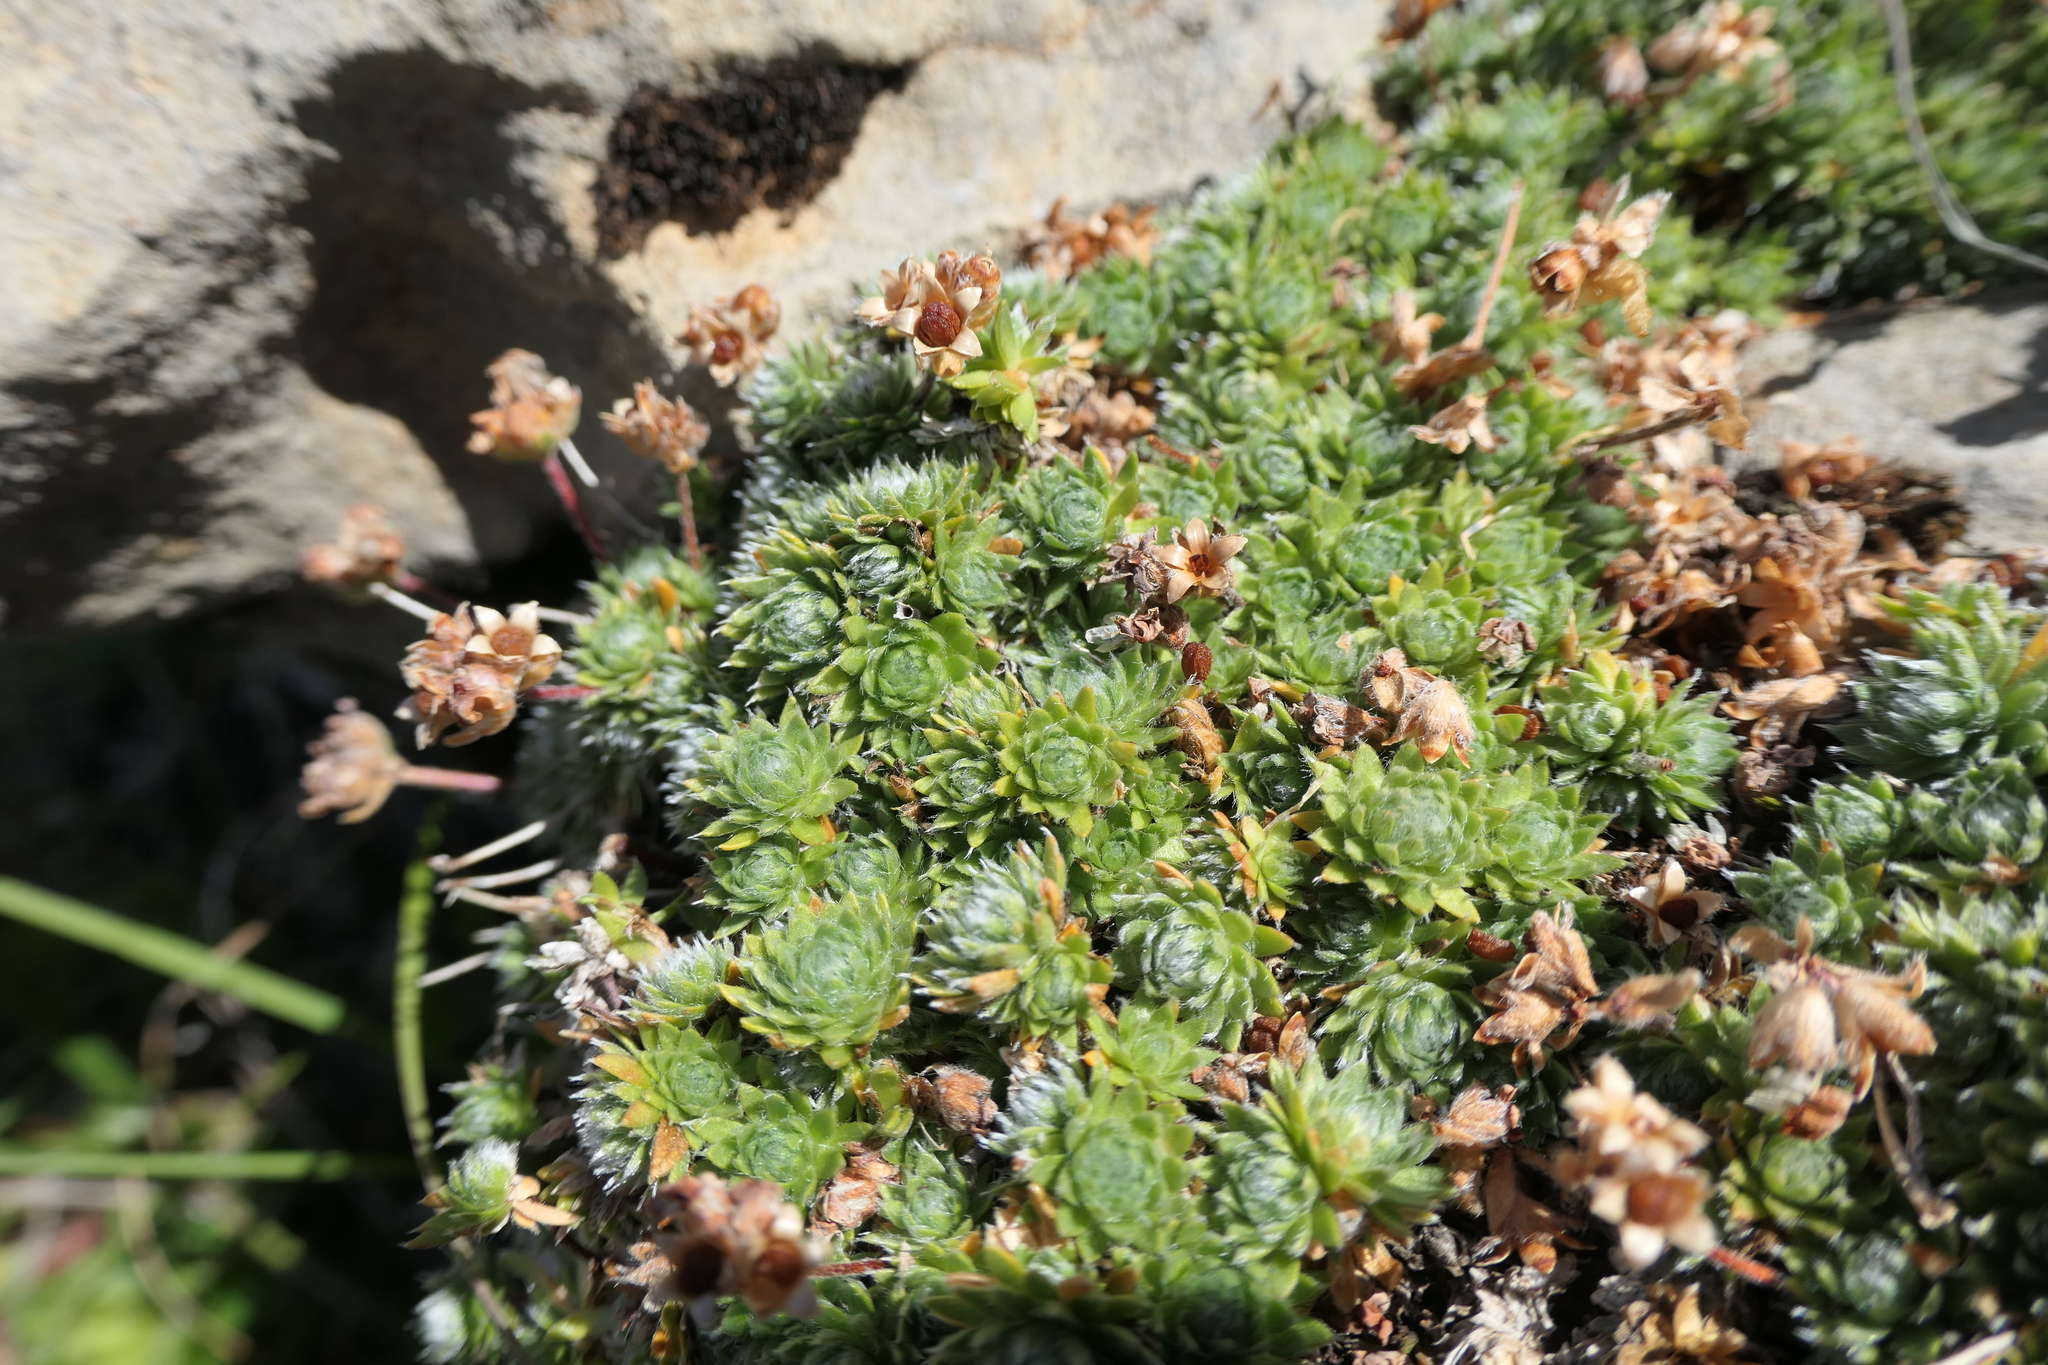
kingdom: Plantae
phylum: Tracheophyta
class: Magnoliopsida
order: Ericales
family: Primulaceae
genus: Androsace
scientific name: Androsace villosa
